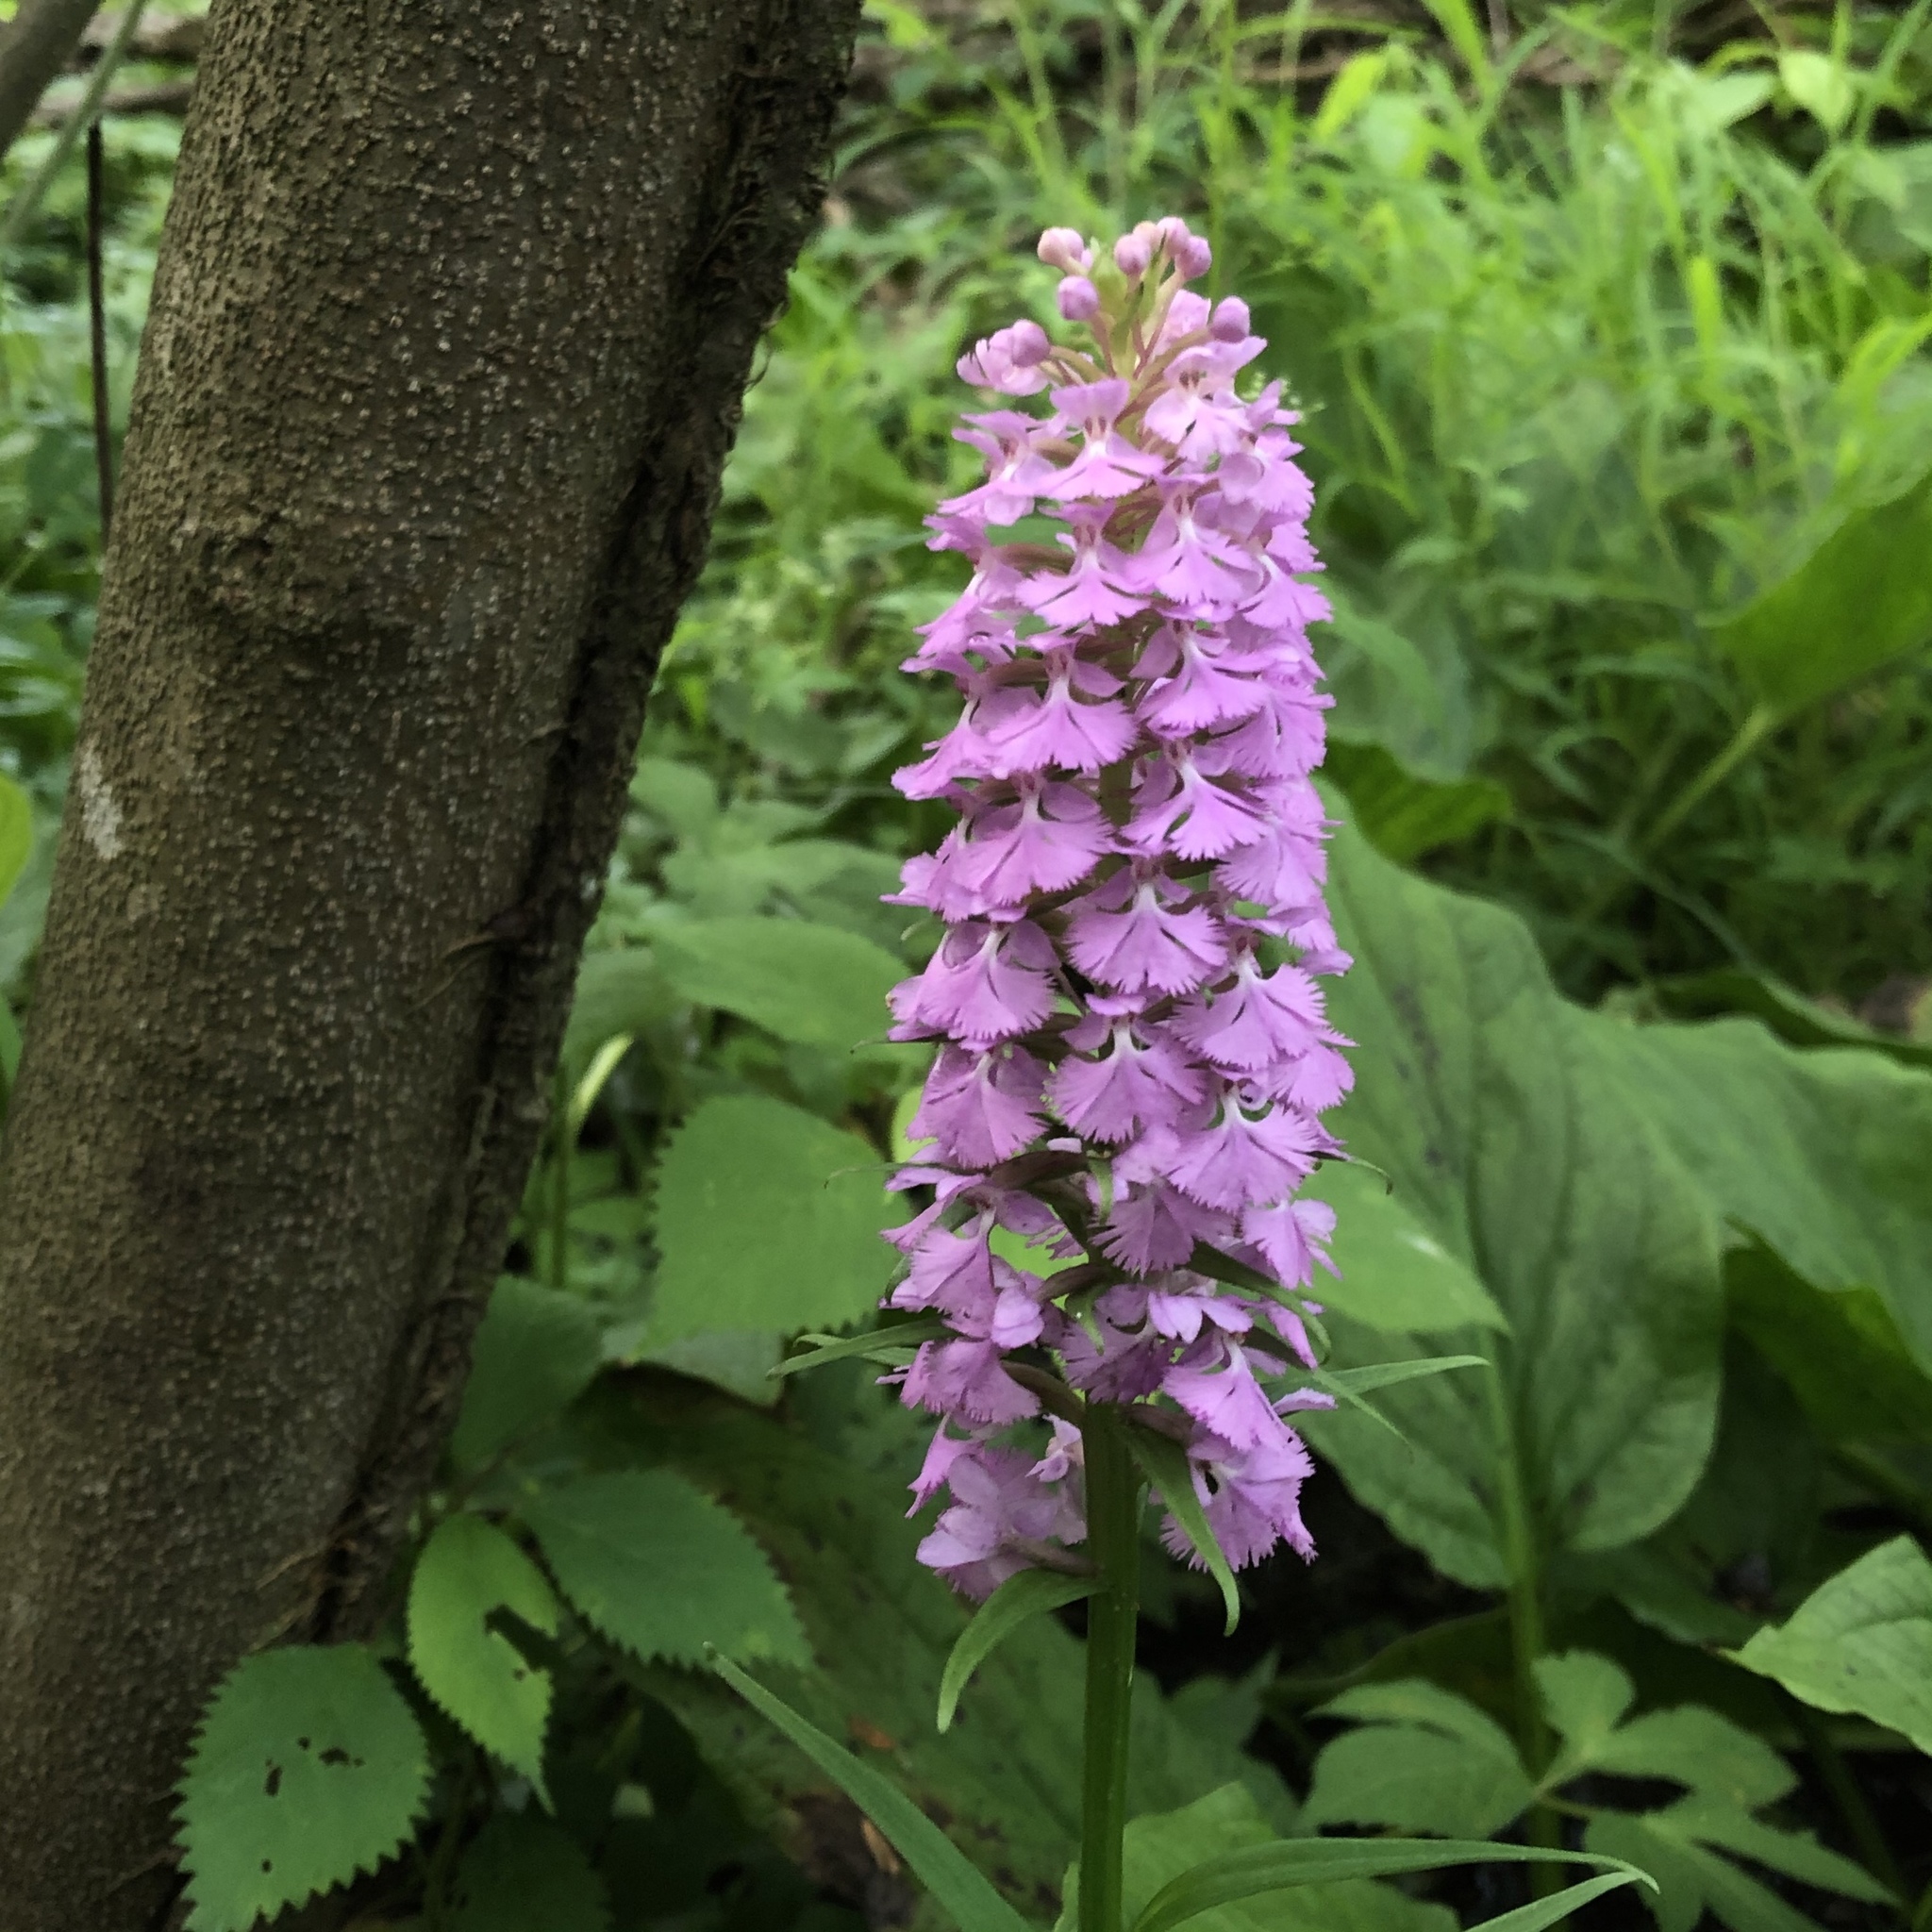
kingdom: Plantae
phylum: Tracheophyta
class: Liliopsida
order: Asparagales
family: Orchidaceae
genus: Platanthera
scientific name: Platanthera psycodes
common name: Lesser purple fringed orchid
